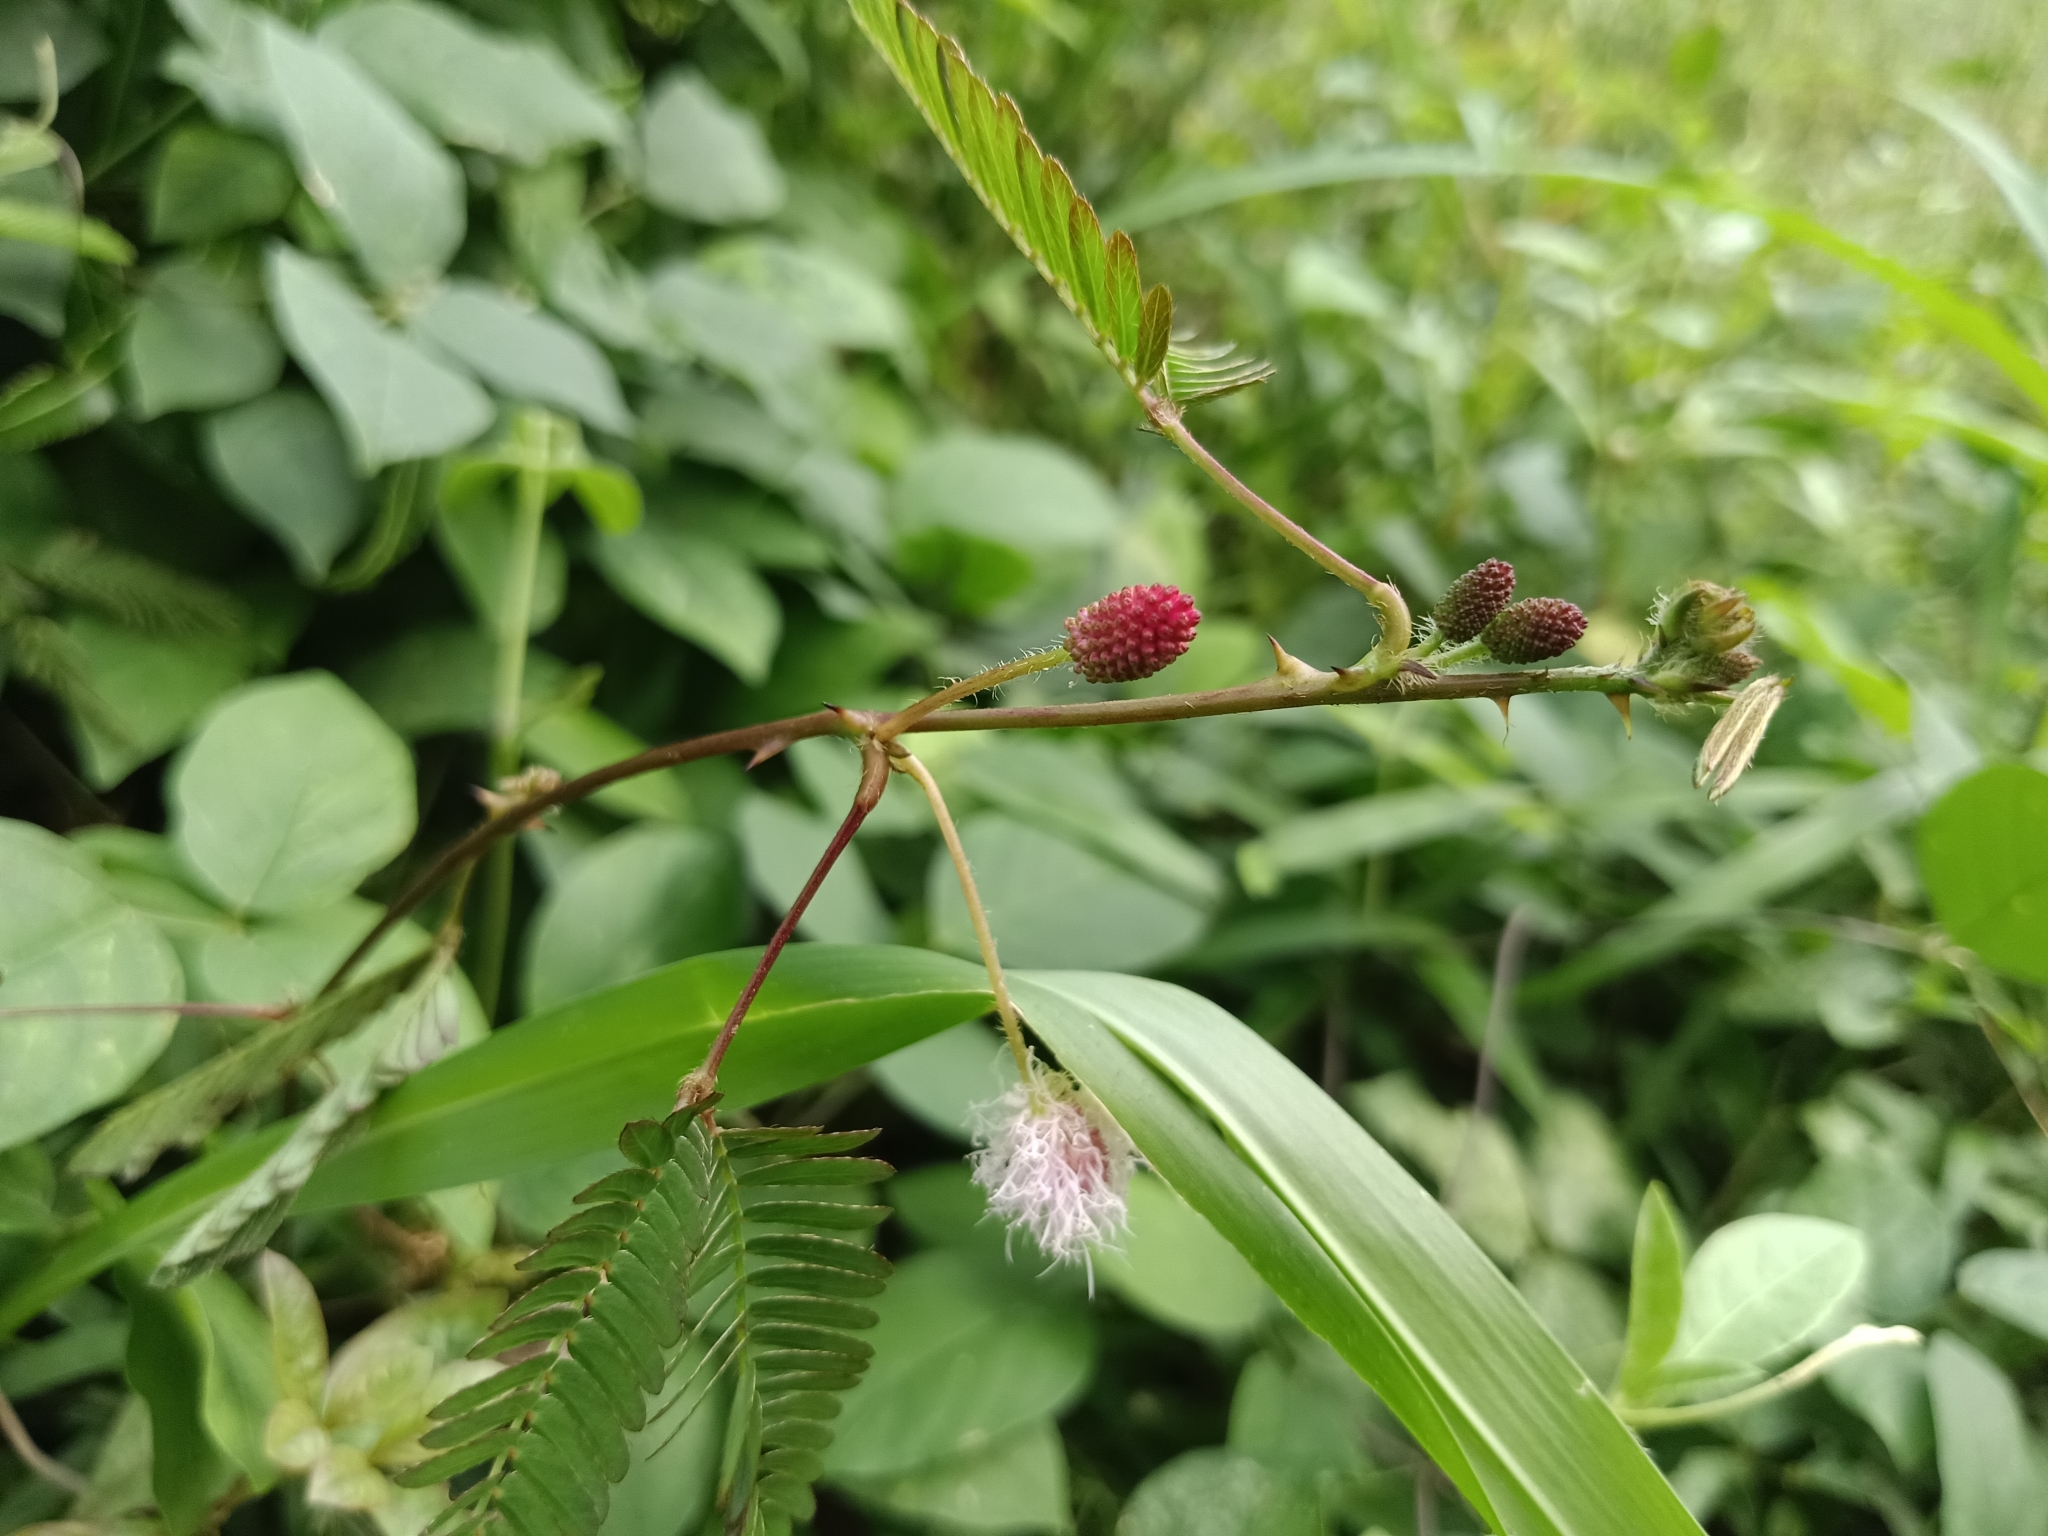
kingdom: Plantae
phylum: Tracheophyta
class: Magnoliopsida
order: Fabales
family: Fabaceae
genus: Mimosa
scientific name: Mimosa pudica
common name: Sensitive plant
